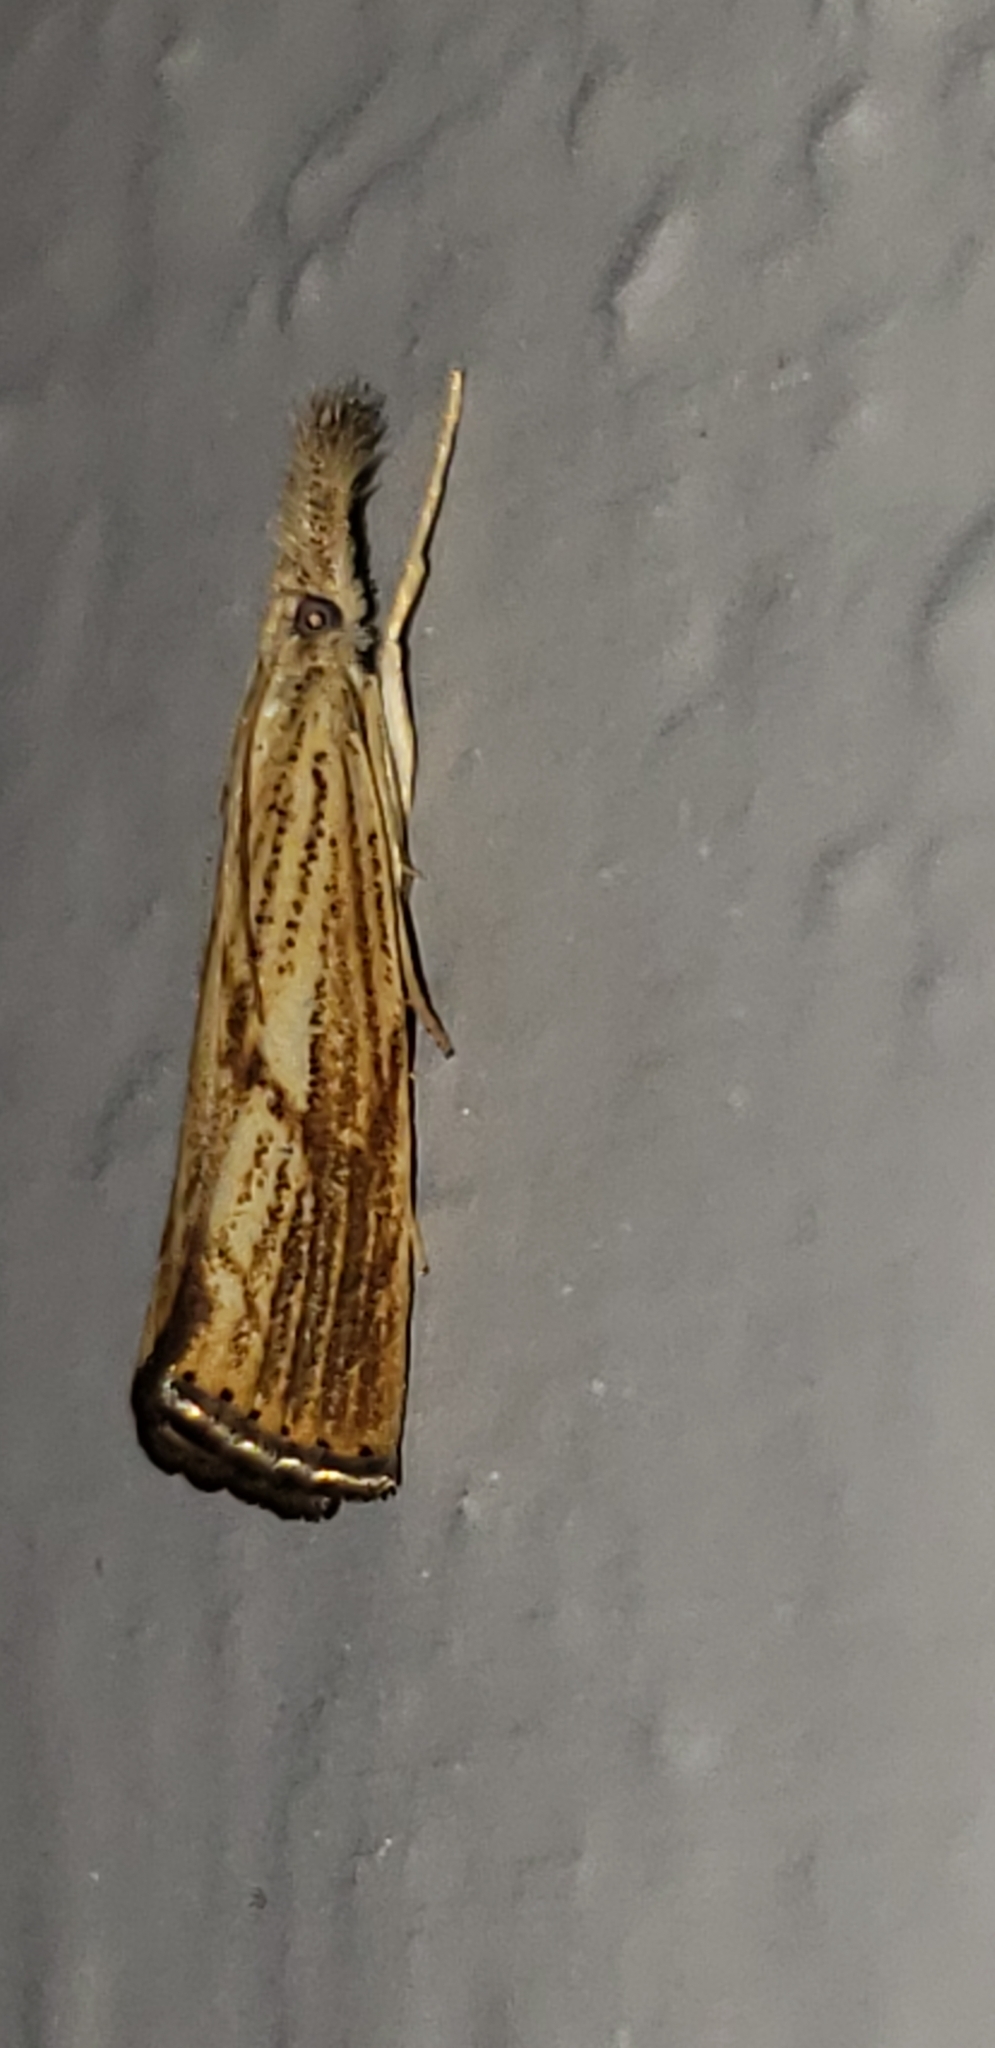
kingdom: Animalia
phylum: Arthropoda
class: Insecta
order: Lepidoptera
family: Crambidae
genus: Agriphila
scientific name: Agriphila ruricolellus
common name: Lesser vagabond sod webworm
